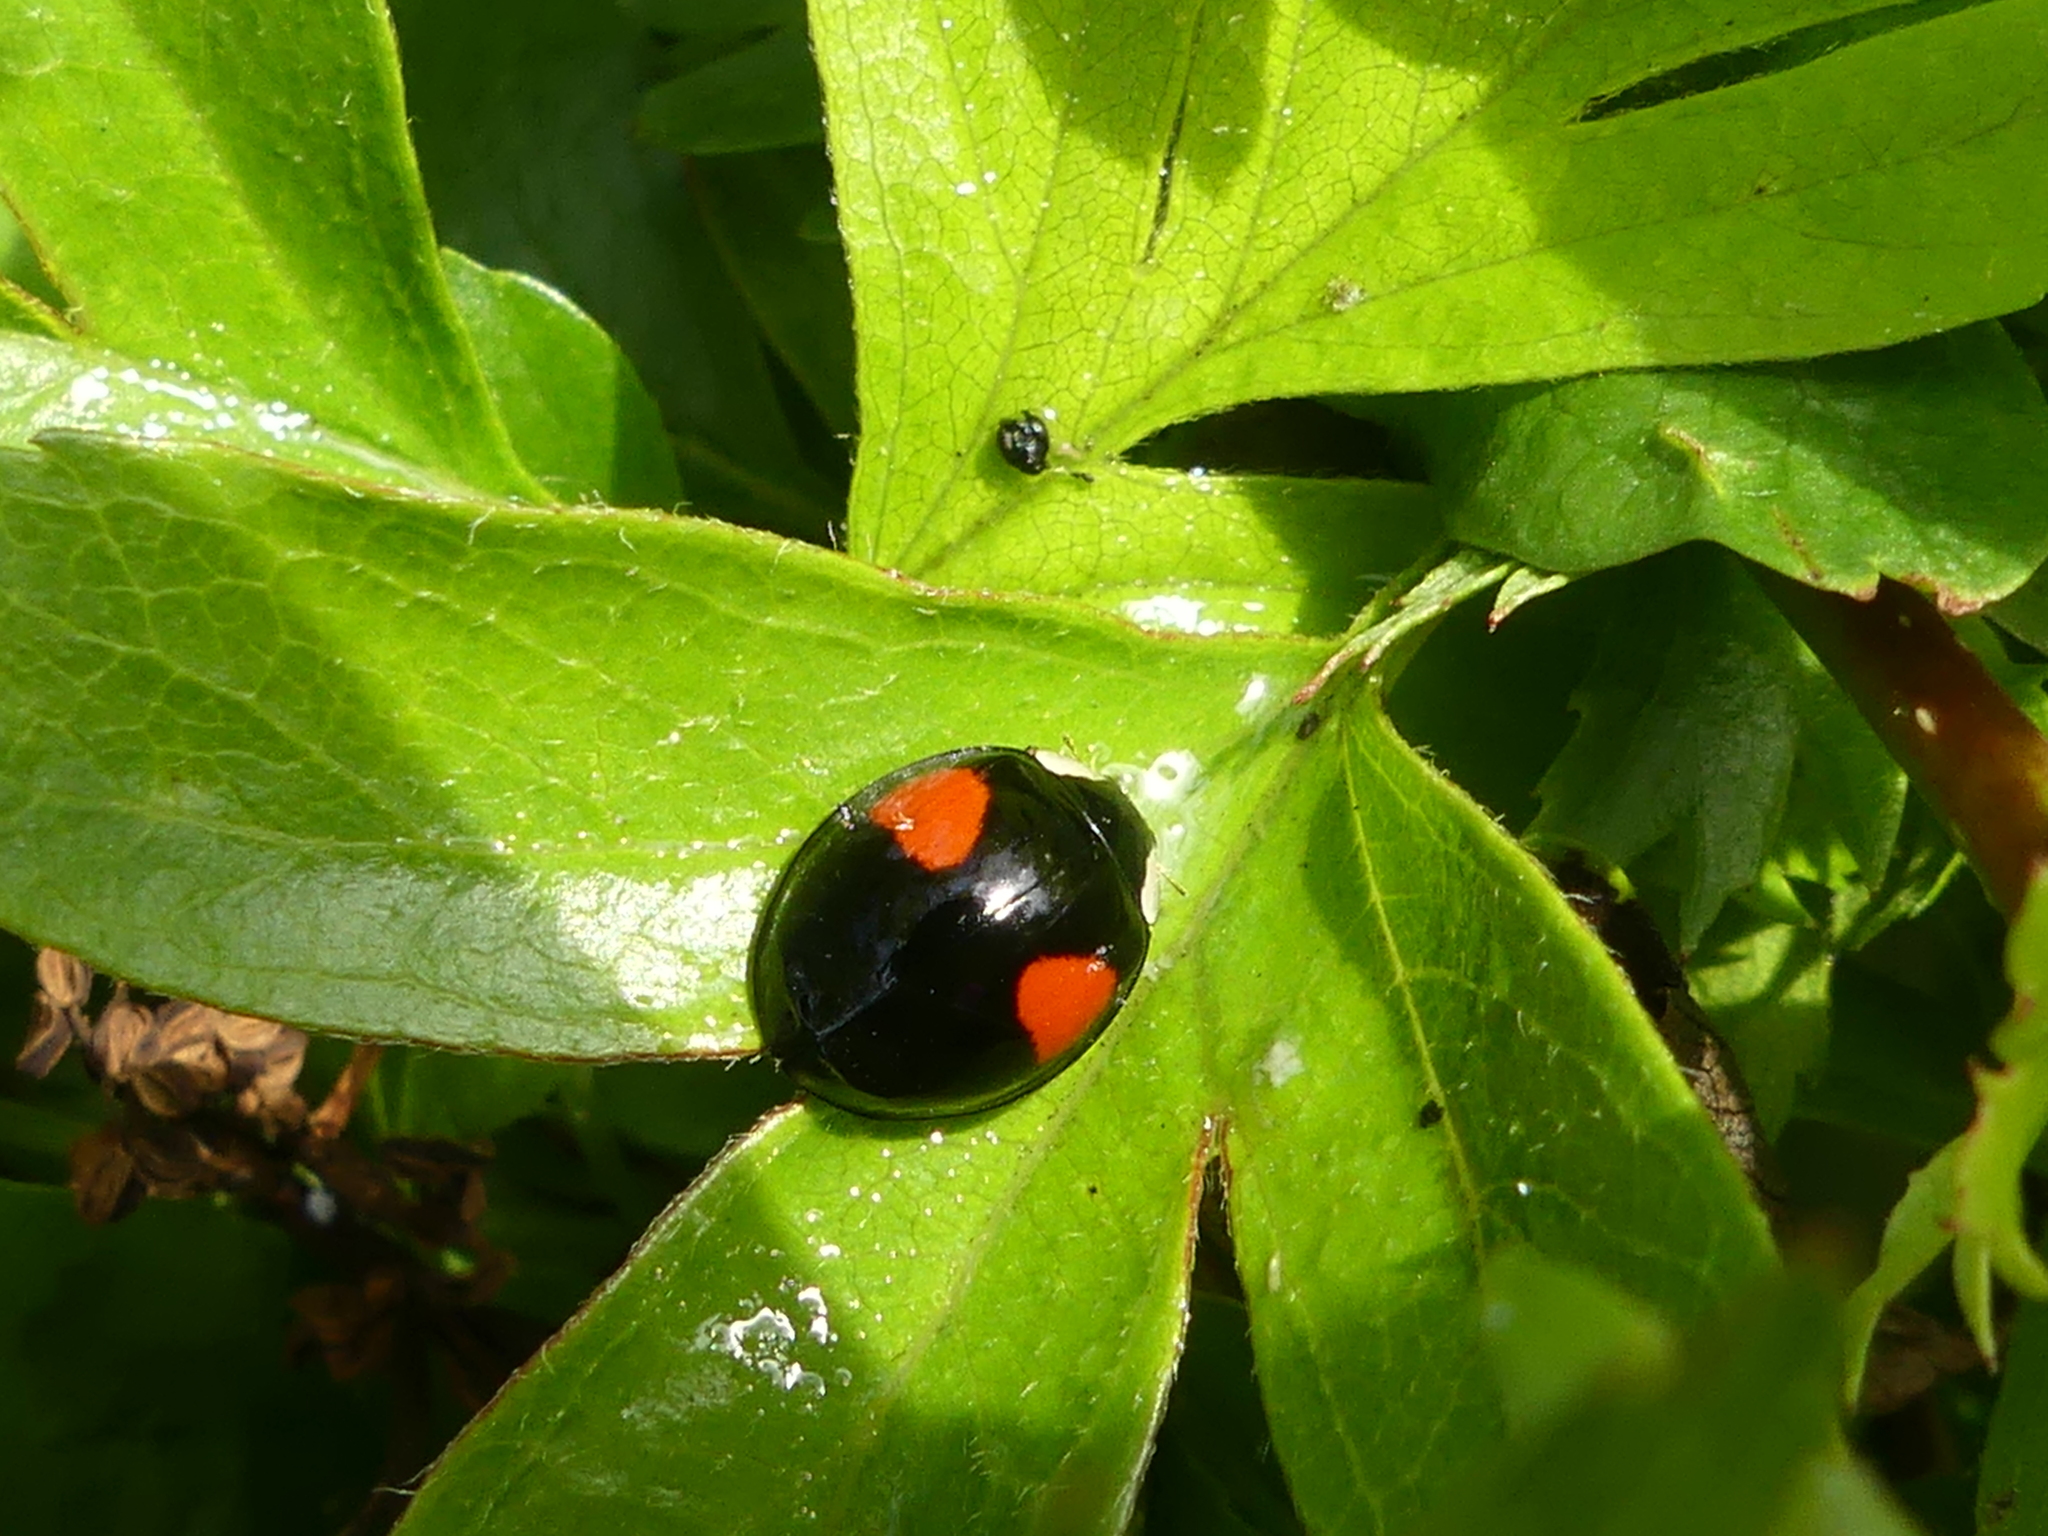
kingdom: Animalia
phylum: Arthropoda
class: Insecta
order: Coleoptera
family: Coccinellidae
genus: Harmonia
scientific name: Harmonia axyridis
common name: Harlequin ladybird
